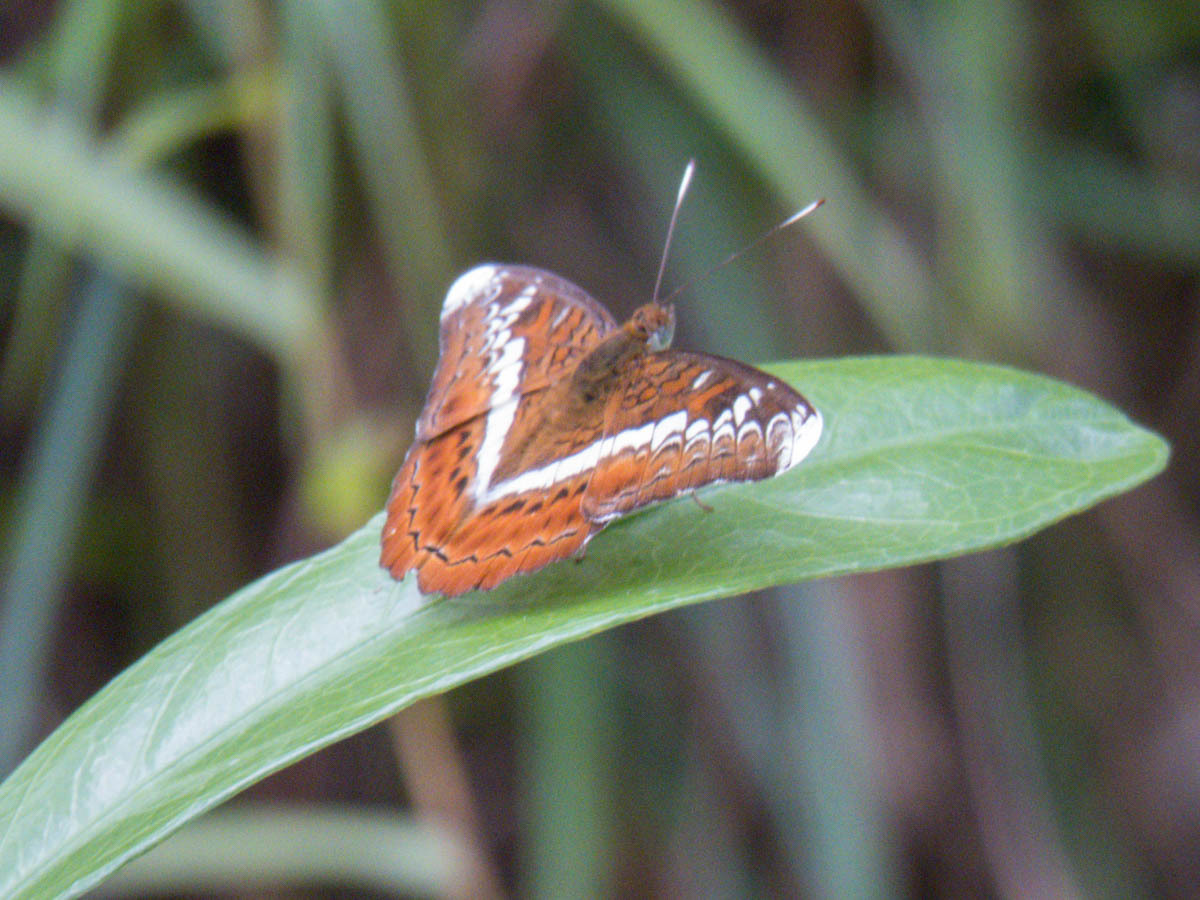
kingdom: Animalia
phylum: Arthropoda
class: Insecta
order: Lepidoptera
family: Nymphalidae
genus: Lebadea
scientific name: Lebadea martha
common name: Knight
